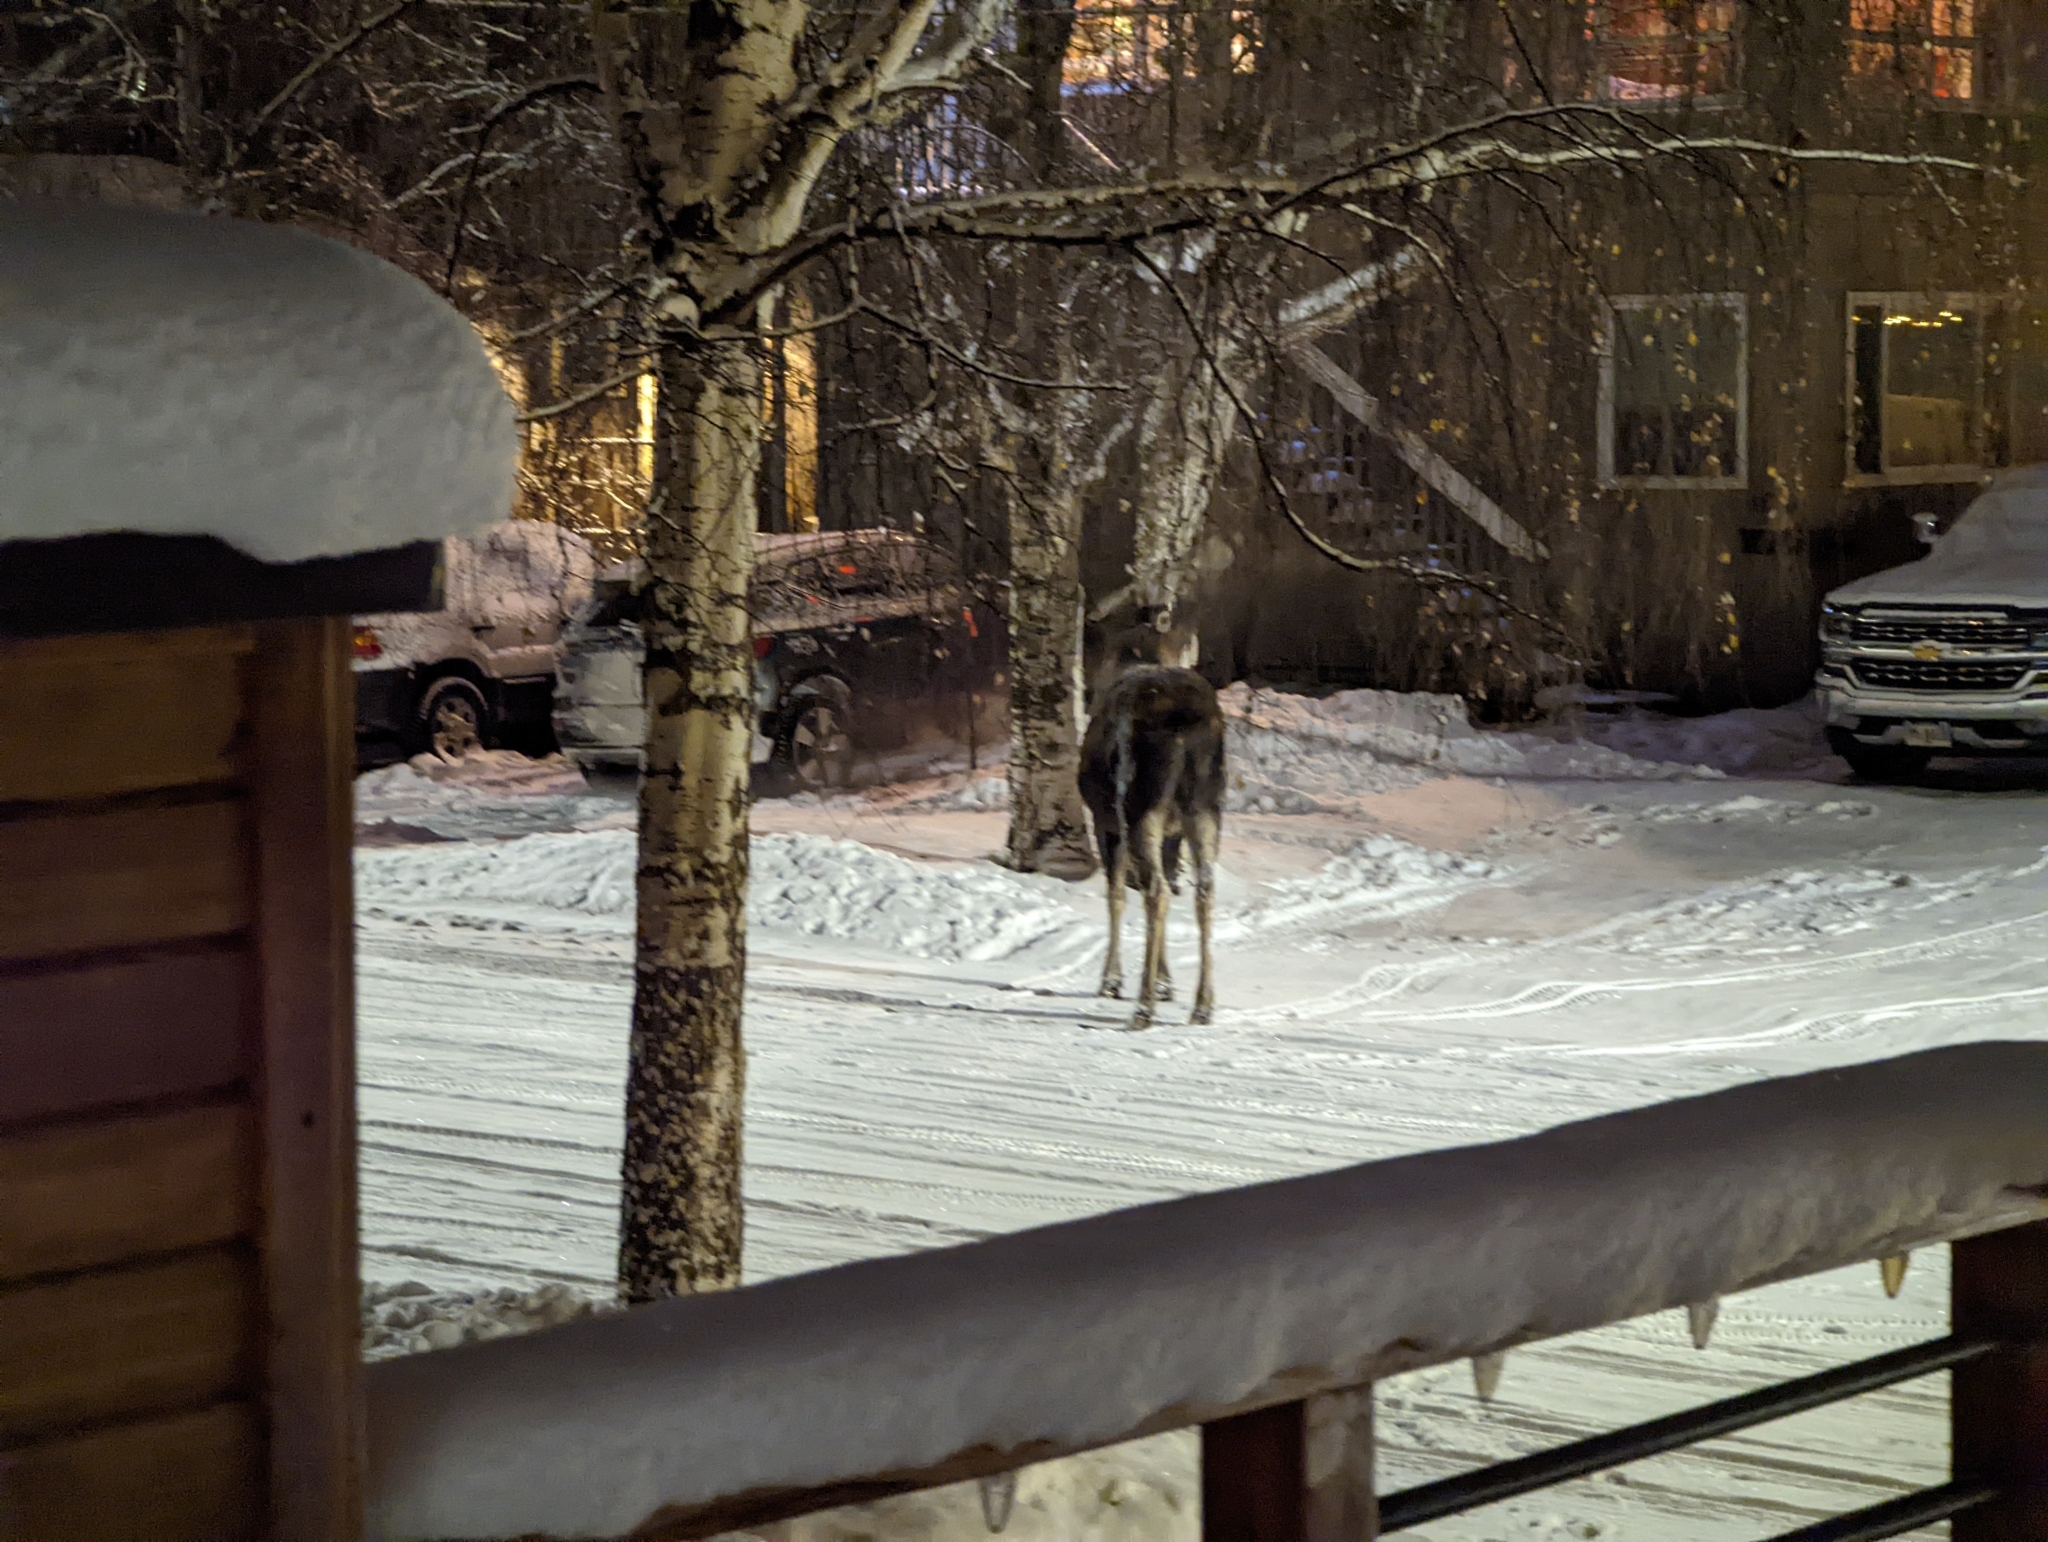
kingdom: Animalia
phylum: Chordata
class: Mammalia
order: Artiodactyla
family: Cervidae
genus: Alces
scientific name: Alces alces
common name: Moose
